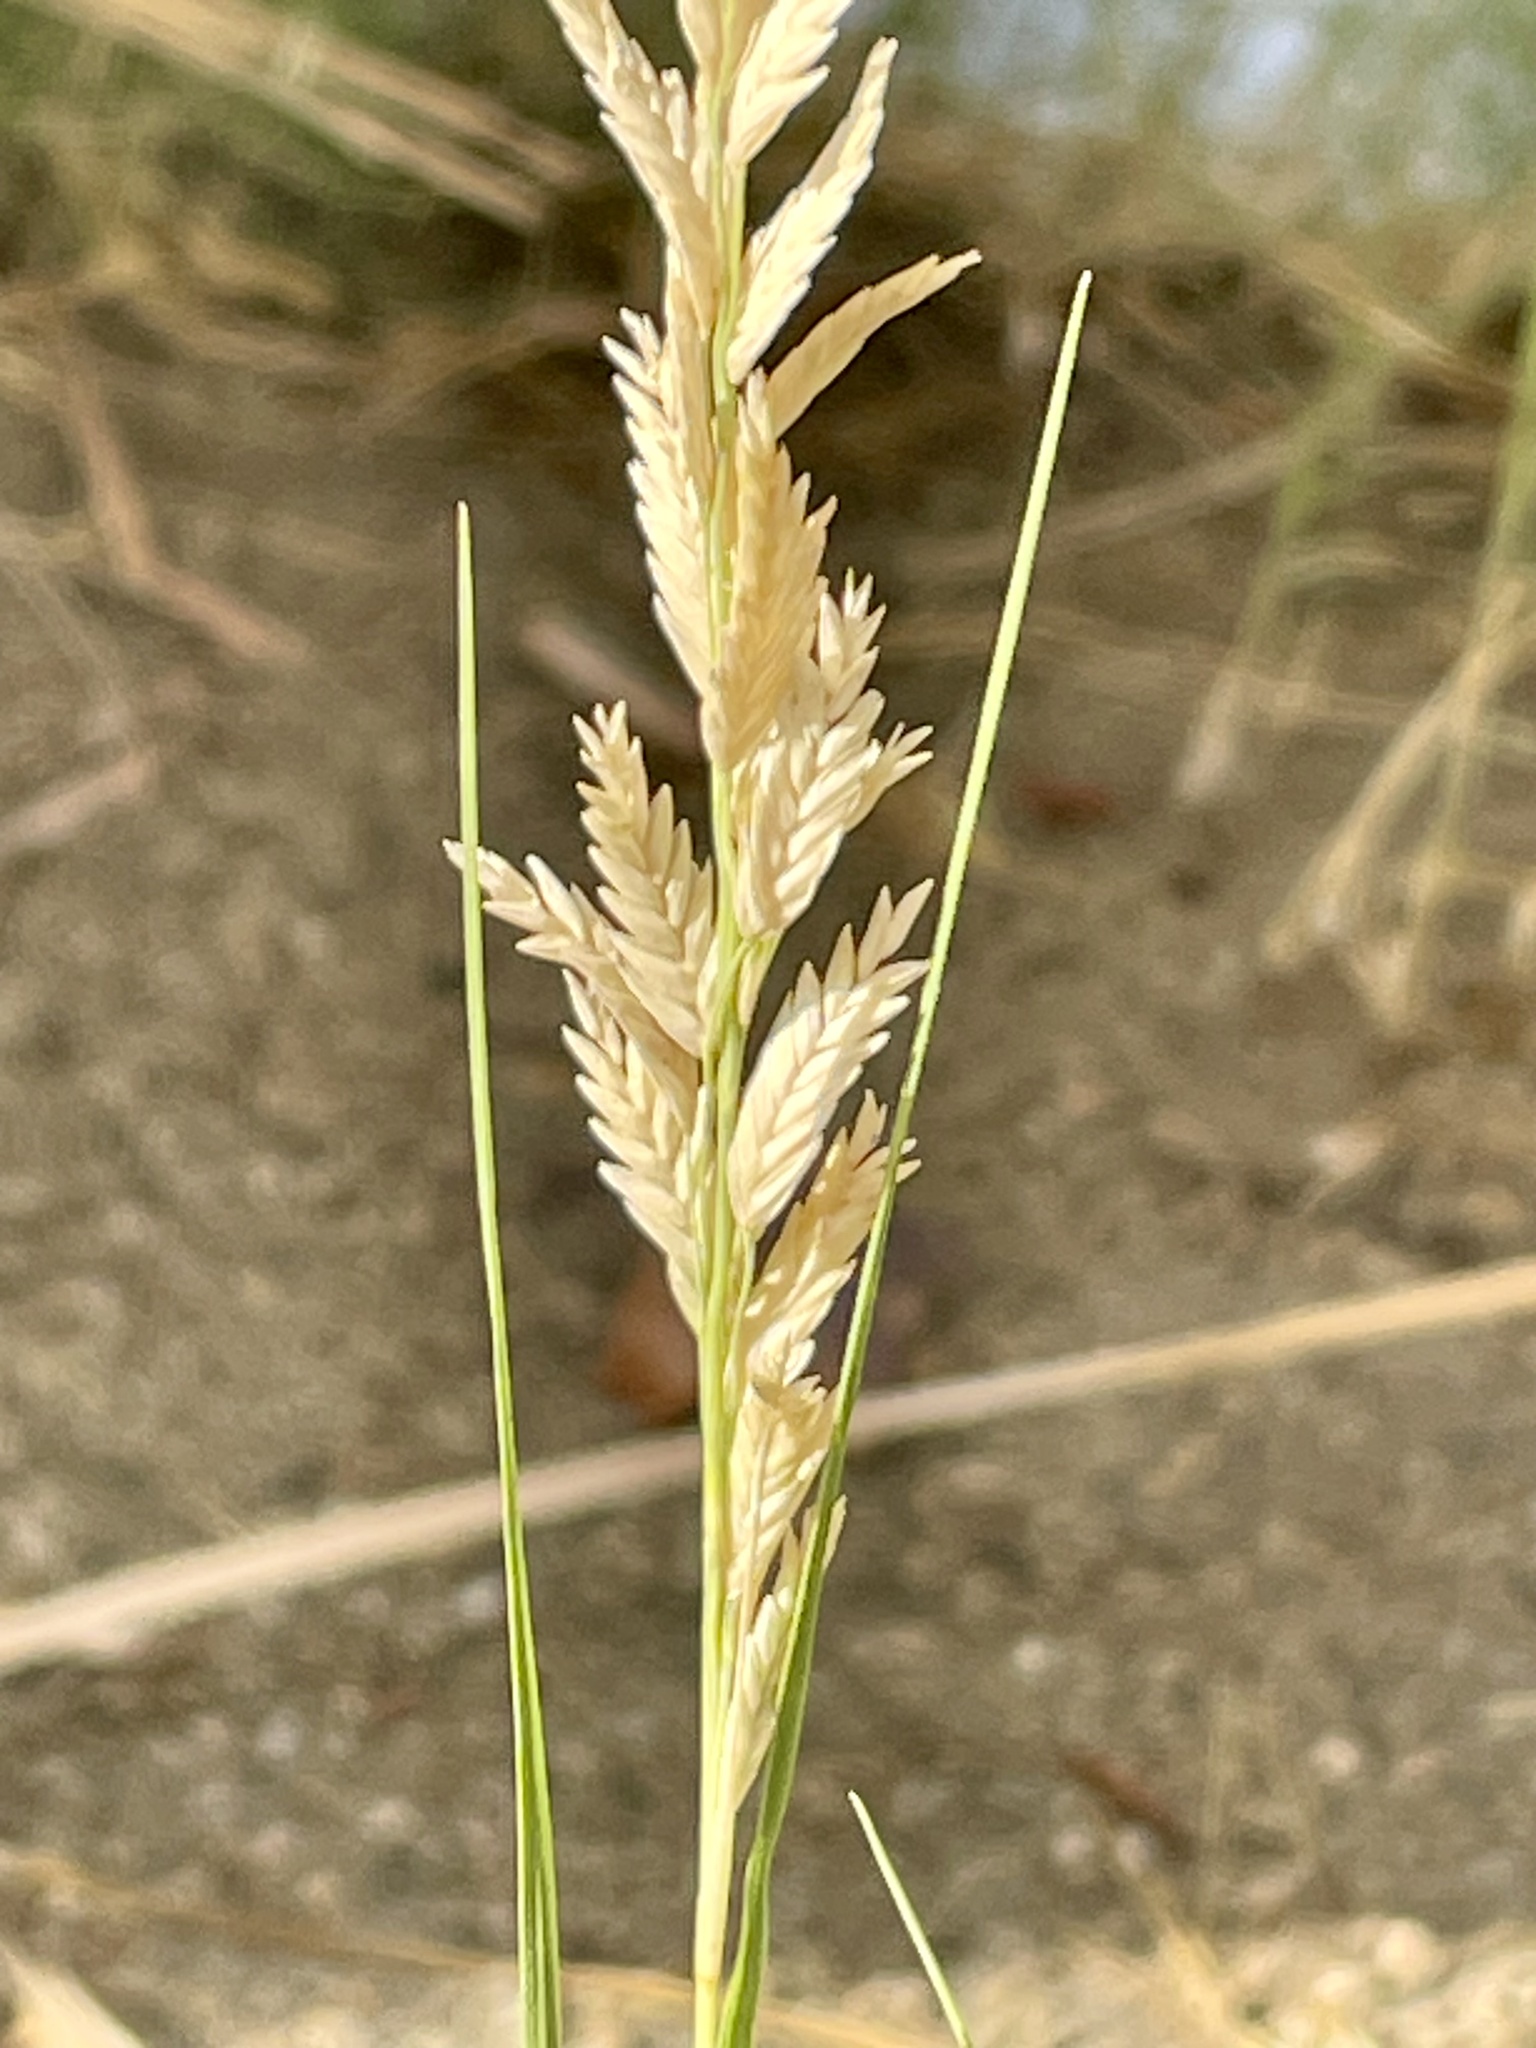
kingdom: Plantae
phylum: Tracheophyta
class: Liliopsida
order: Poales
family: Poaceae
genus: Distichlis
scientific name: Distichlis spicata
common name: Saltgrass
